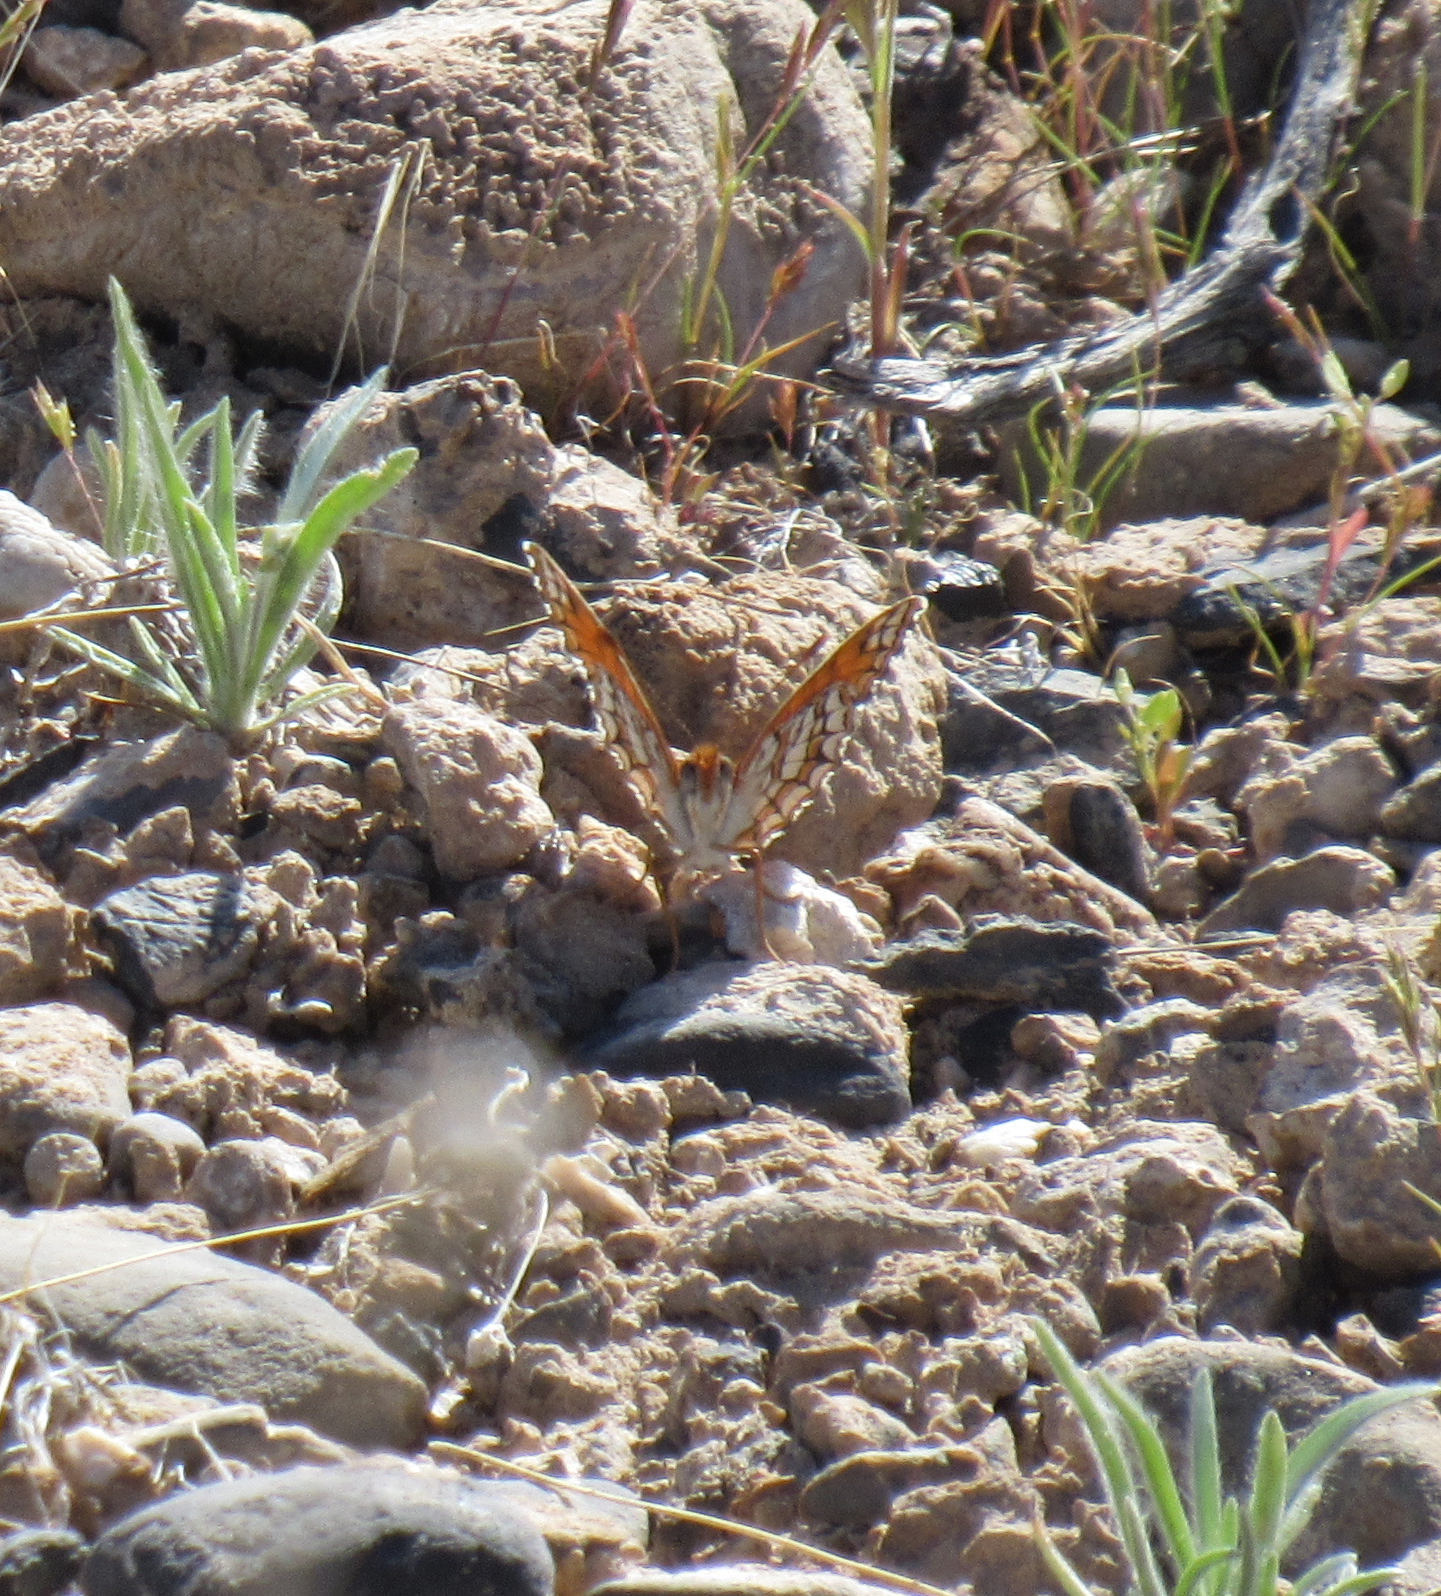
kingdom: Animalia
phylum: Arthropoda
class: Insecta
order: Lepidoptera
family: Nymphalidae
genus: Chlosyne
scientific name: Chlosyne acastus
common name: Sagebrush checkerspot
